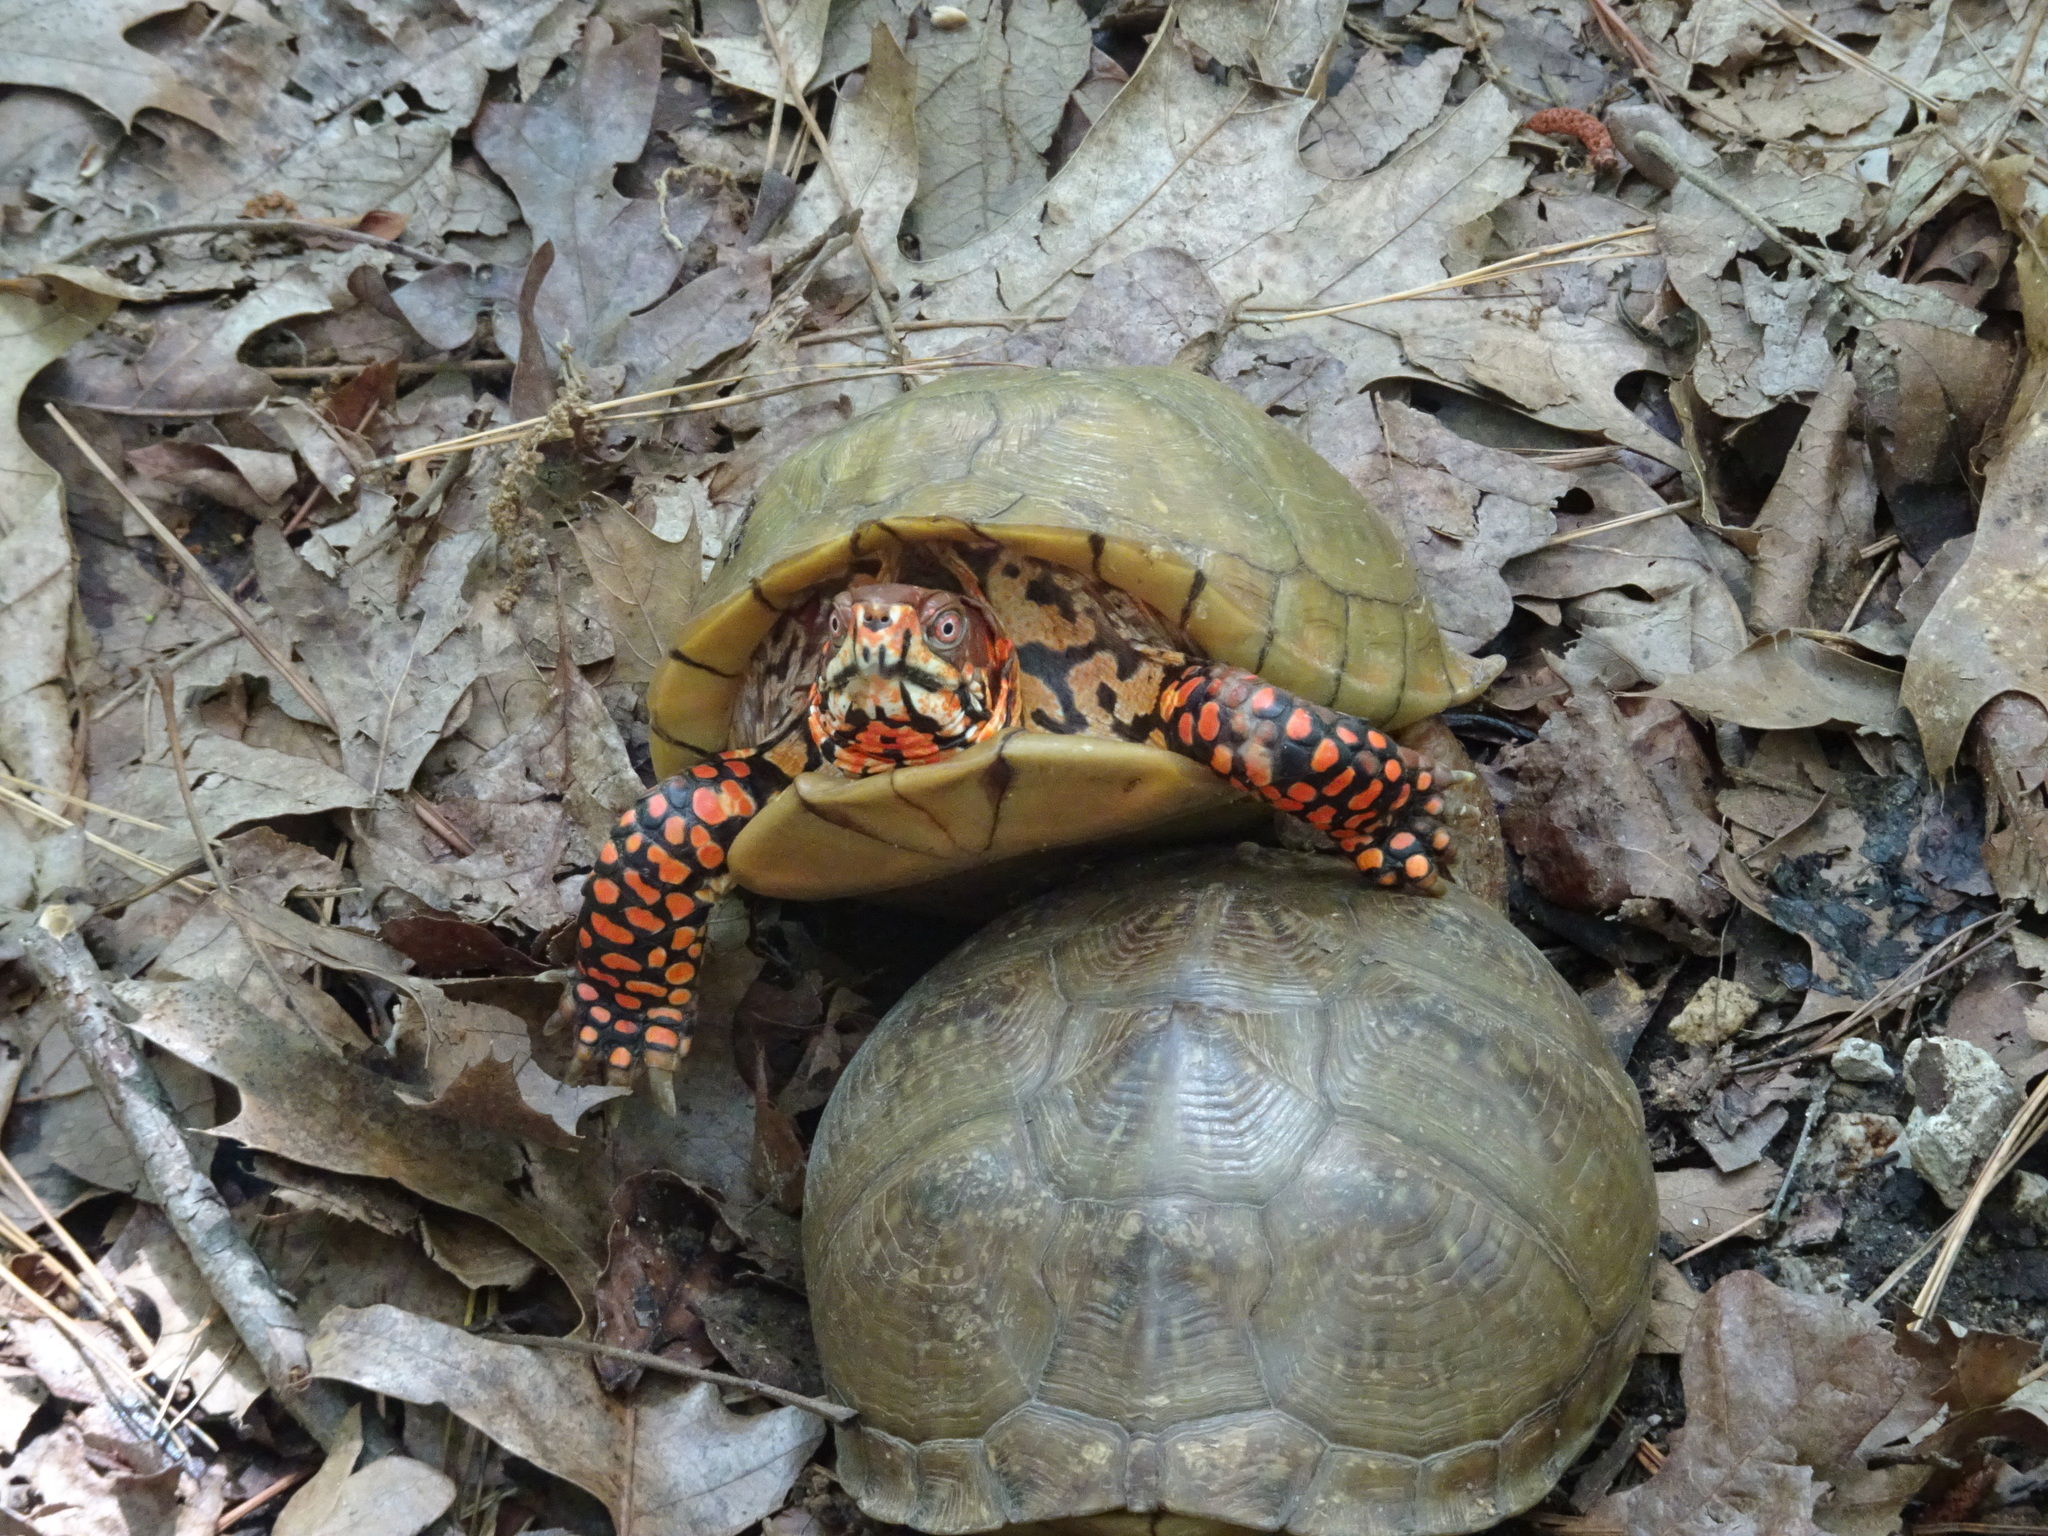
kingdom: Animalia
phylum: Chordata
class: Testudines
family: Emydidae
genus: Terrapene
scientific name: Terrapene carolina
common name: Common box turtle
